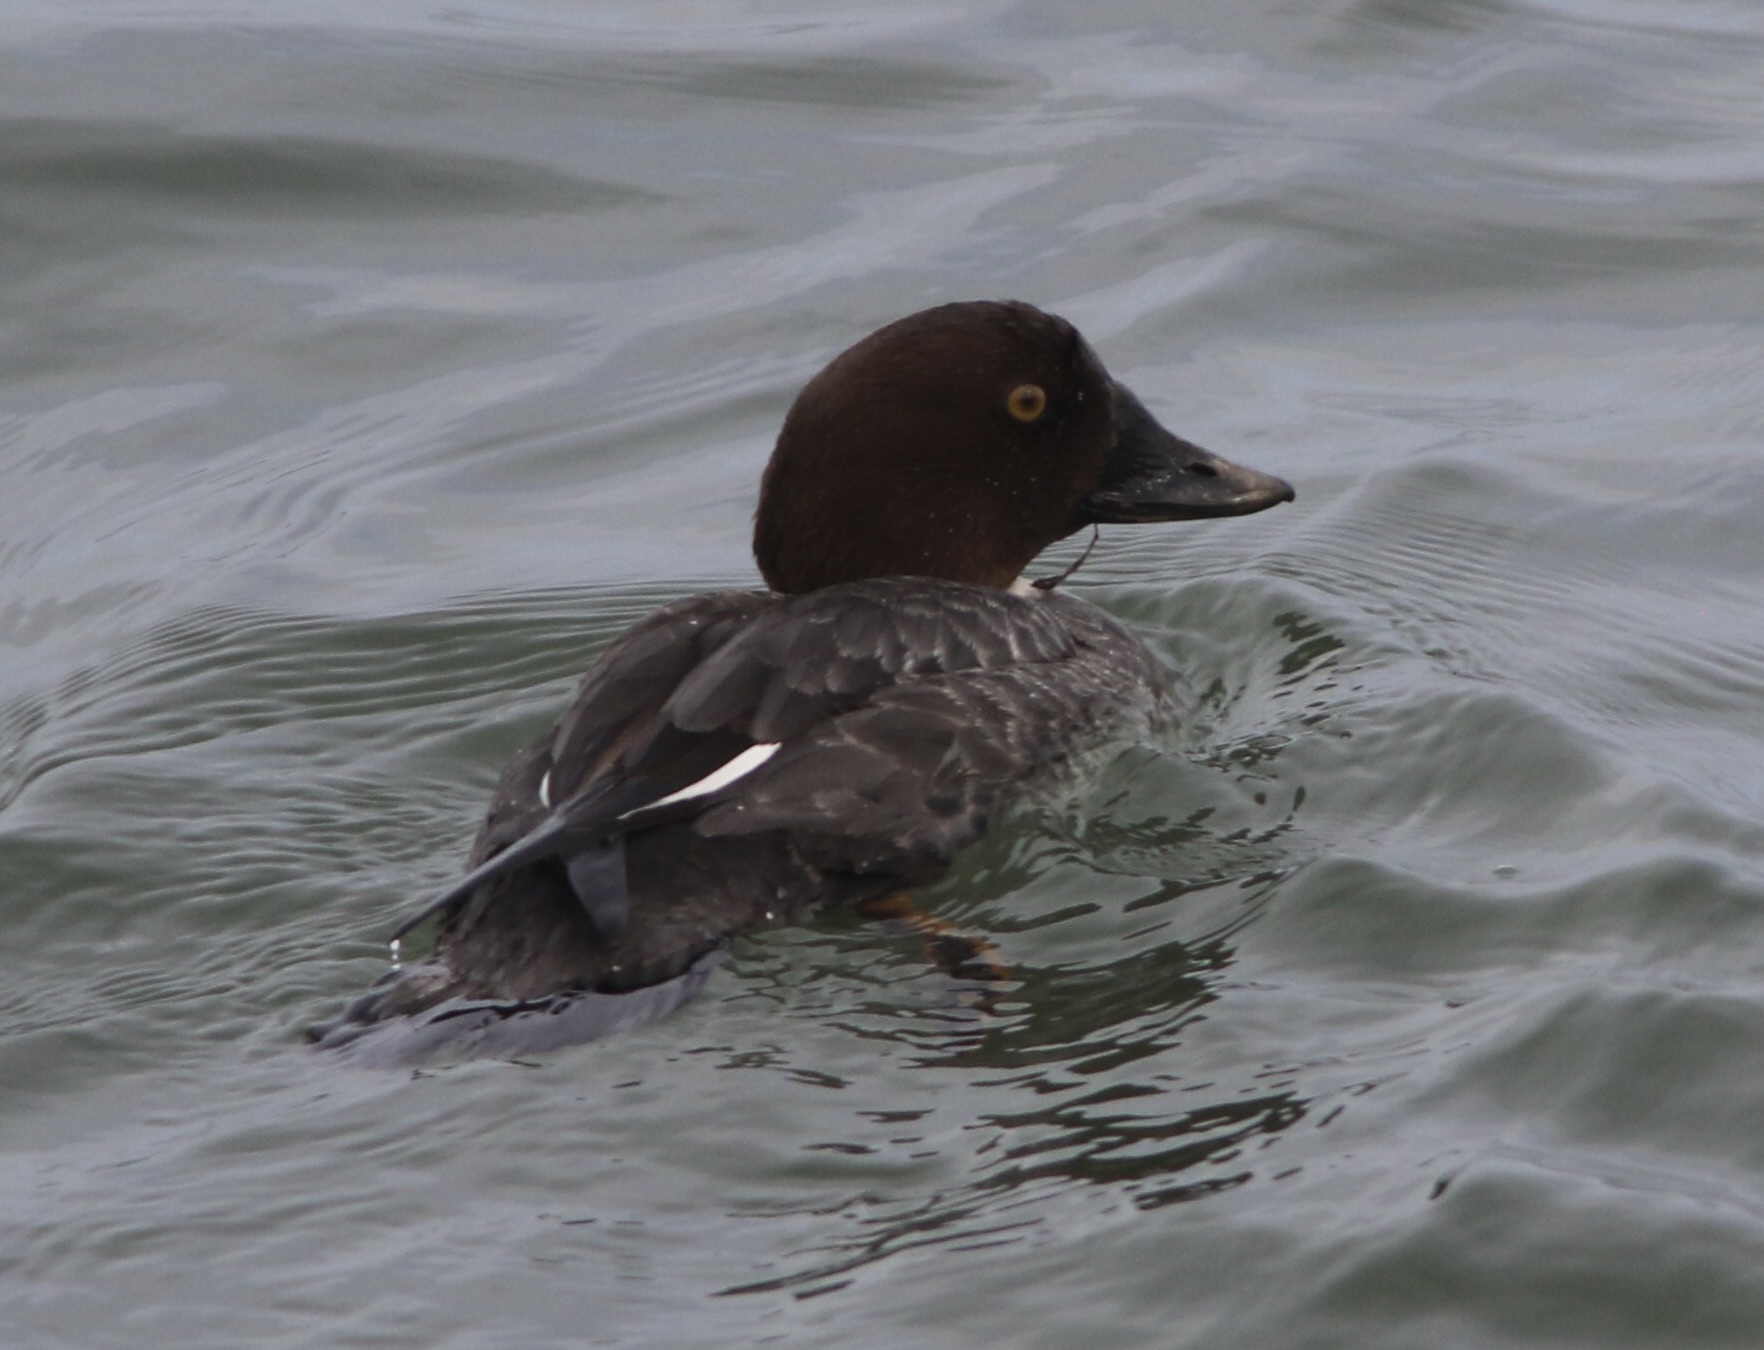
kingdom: Animalia
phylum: Chordata
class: Aves
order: Anseriformes
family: Anatidae
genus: Bucephala
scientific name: Bucephala clangula
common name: Common goldeneye
